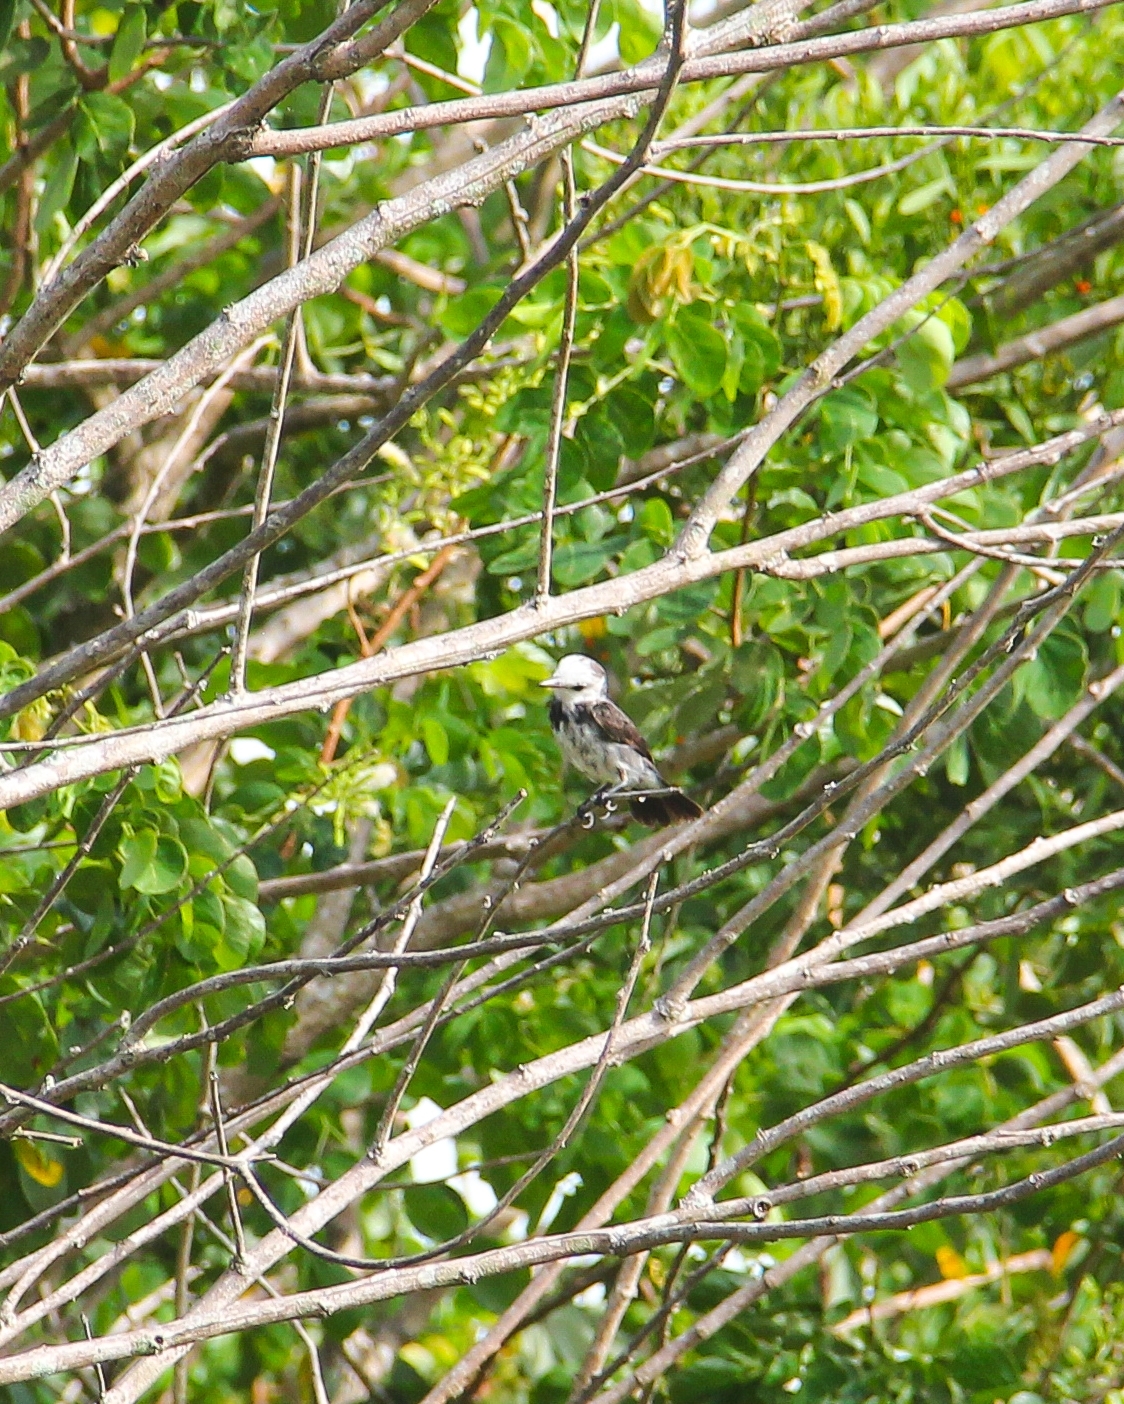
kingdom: Animalia
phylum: Chordata
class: Aves
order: Passeriformes
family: Tyrannidae
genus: Arundinicola
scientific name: Arundinicola leucocephala
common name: White-headed marsh tyrant
